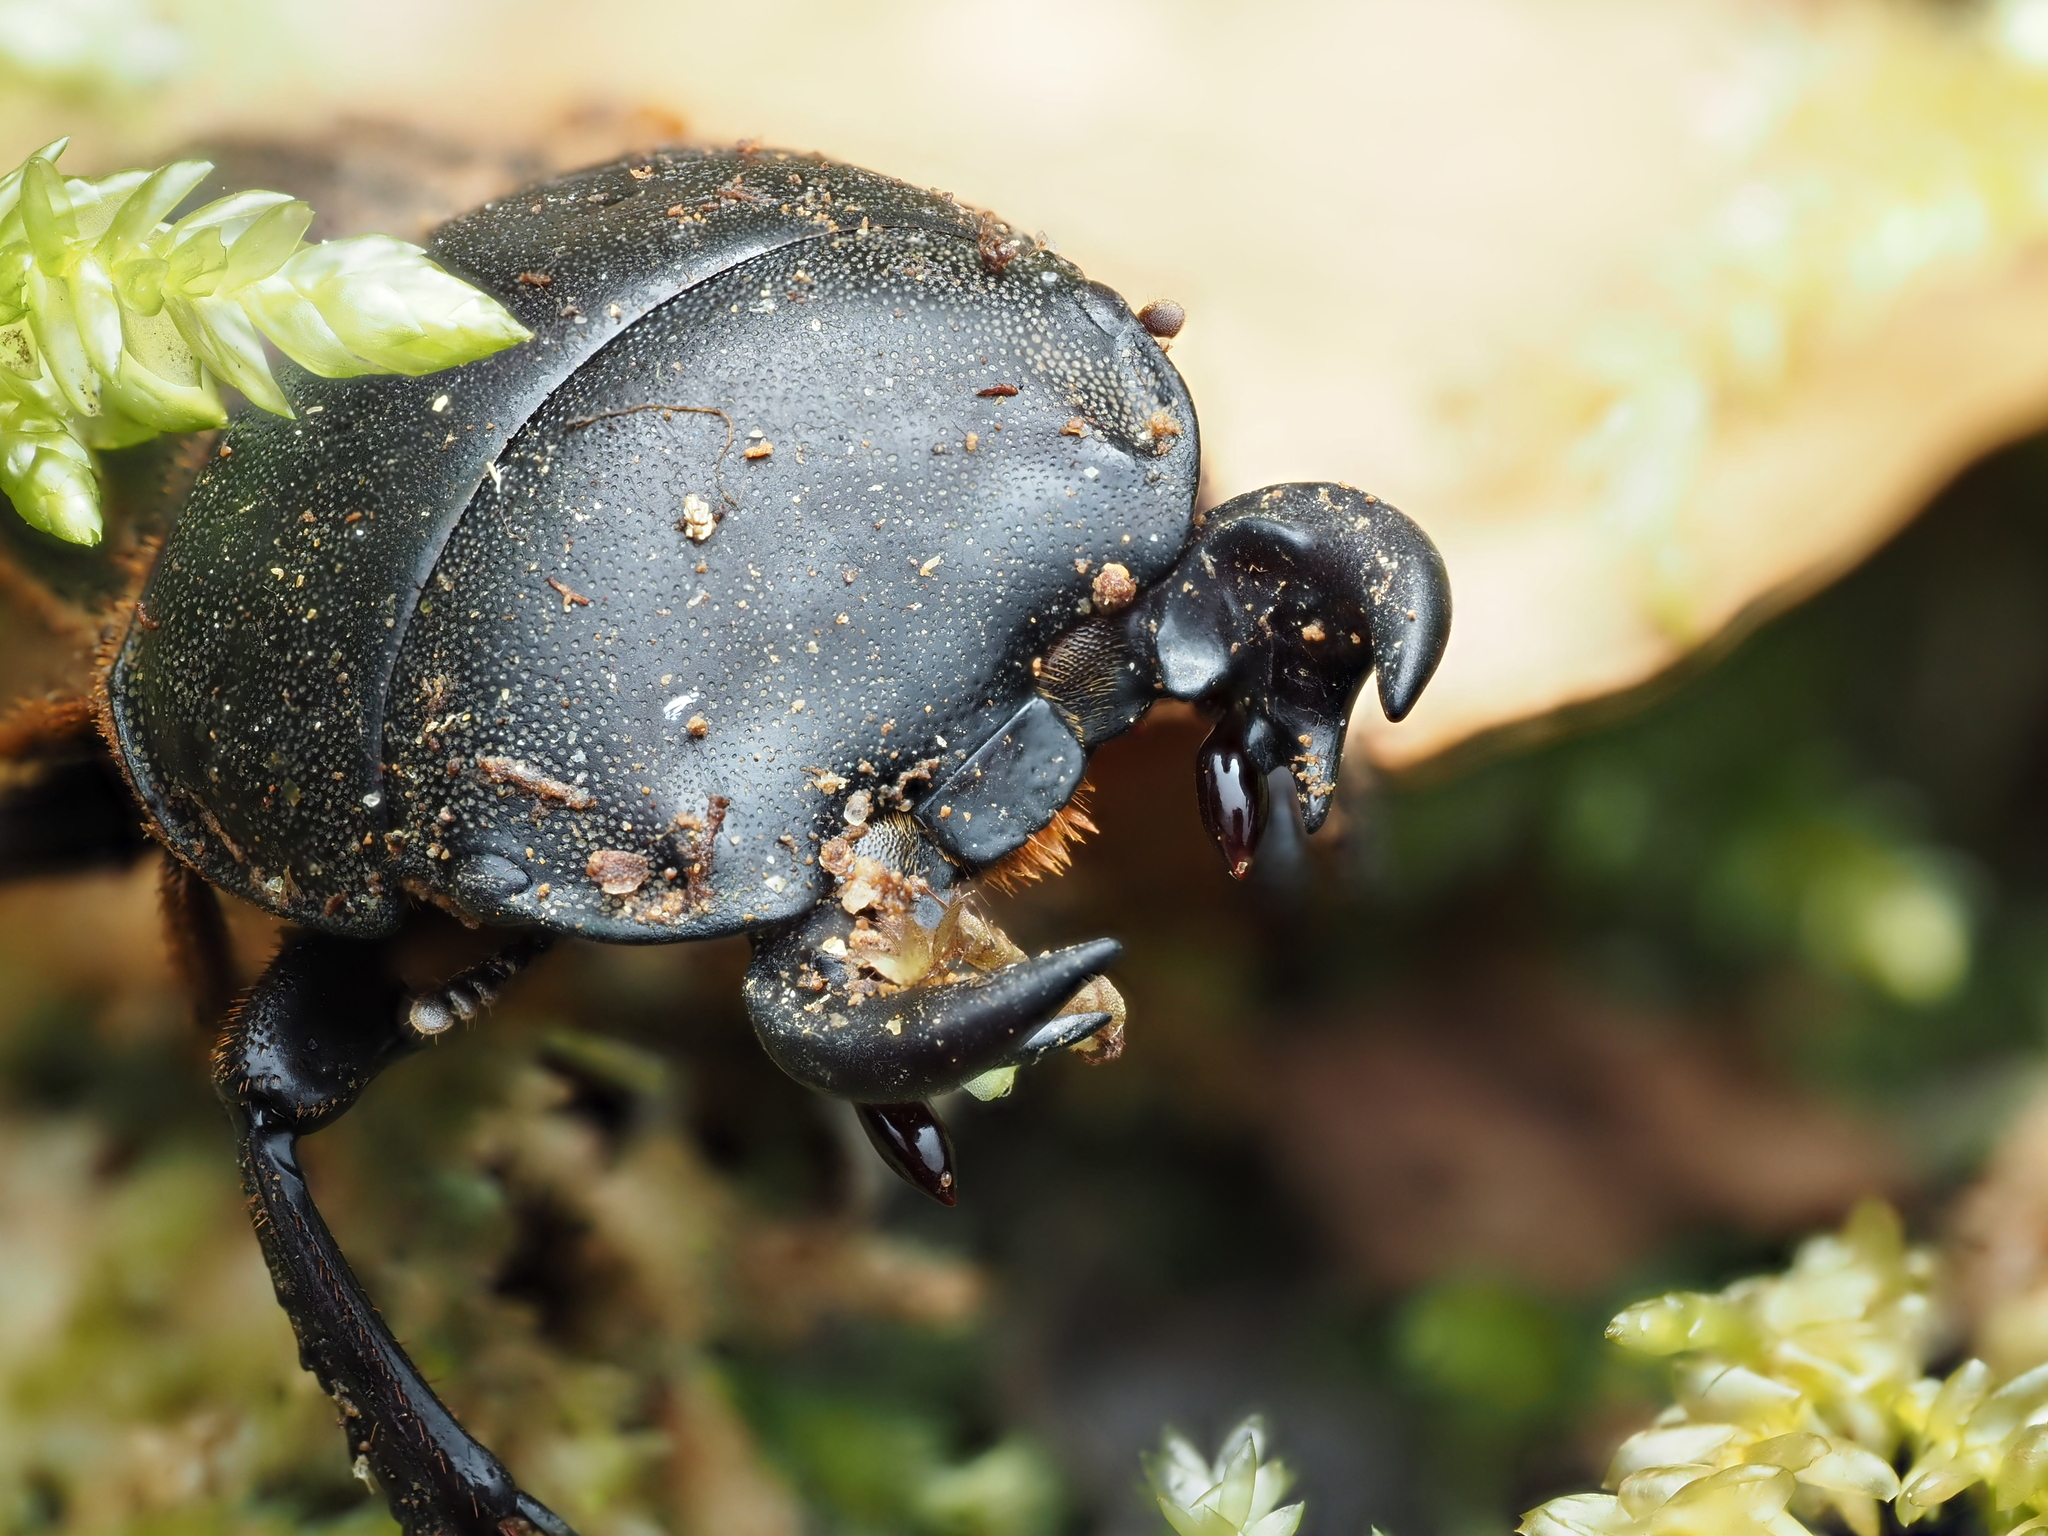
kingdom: Animalia
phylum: Arthropoda
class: Insecta
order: Coleoptera
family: Lucanidae
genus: Geodorcus
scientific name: Geodorcus helmsi
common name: Helm's stag beetle
